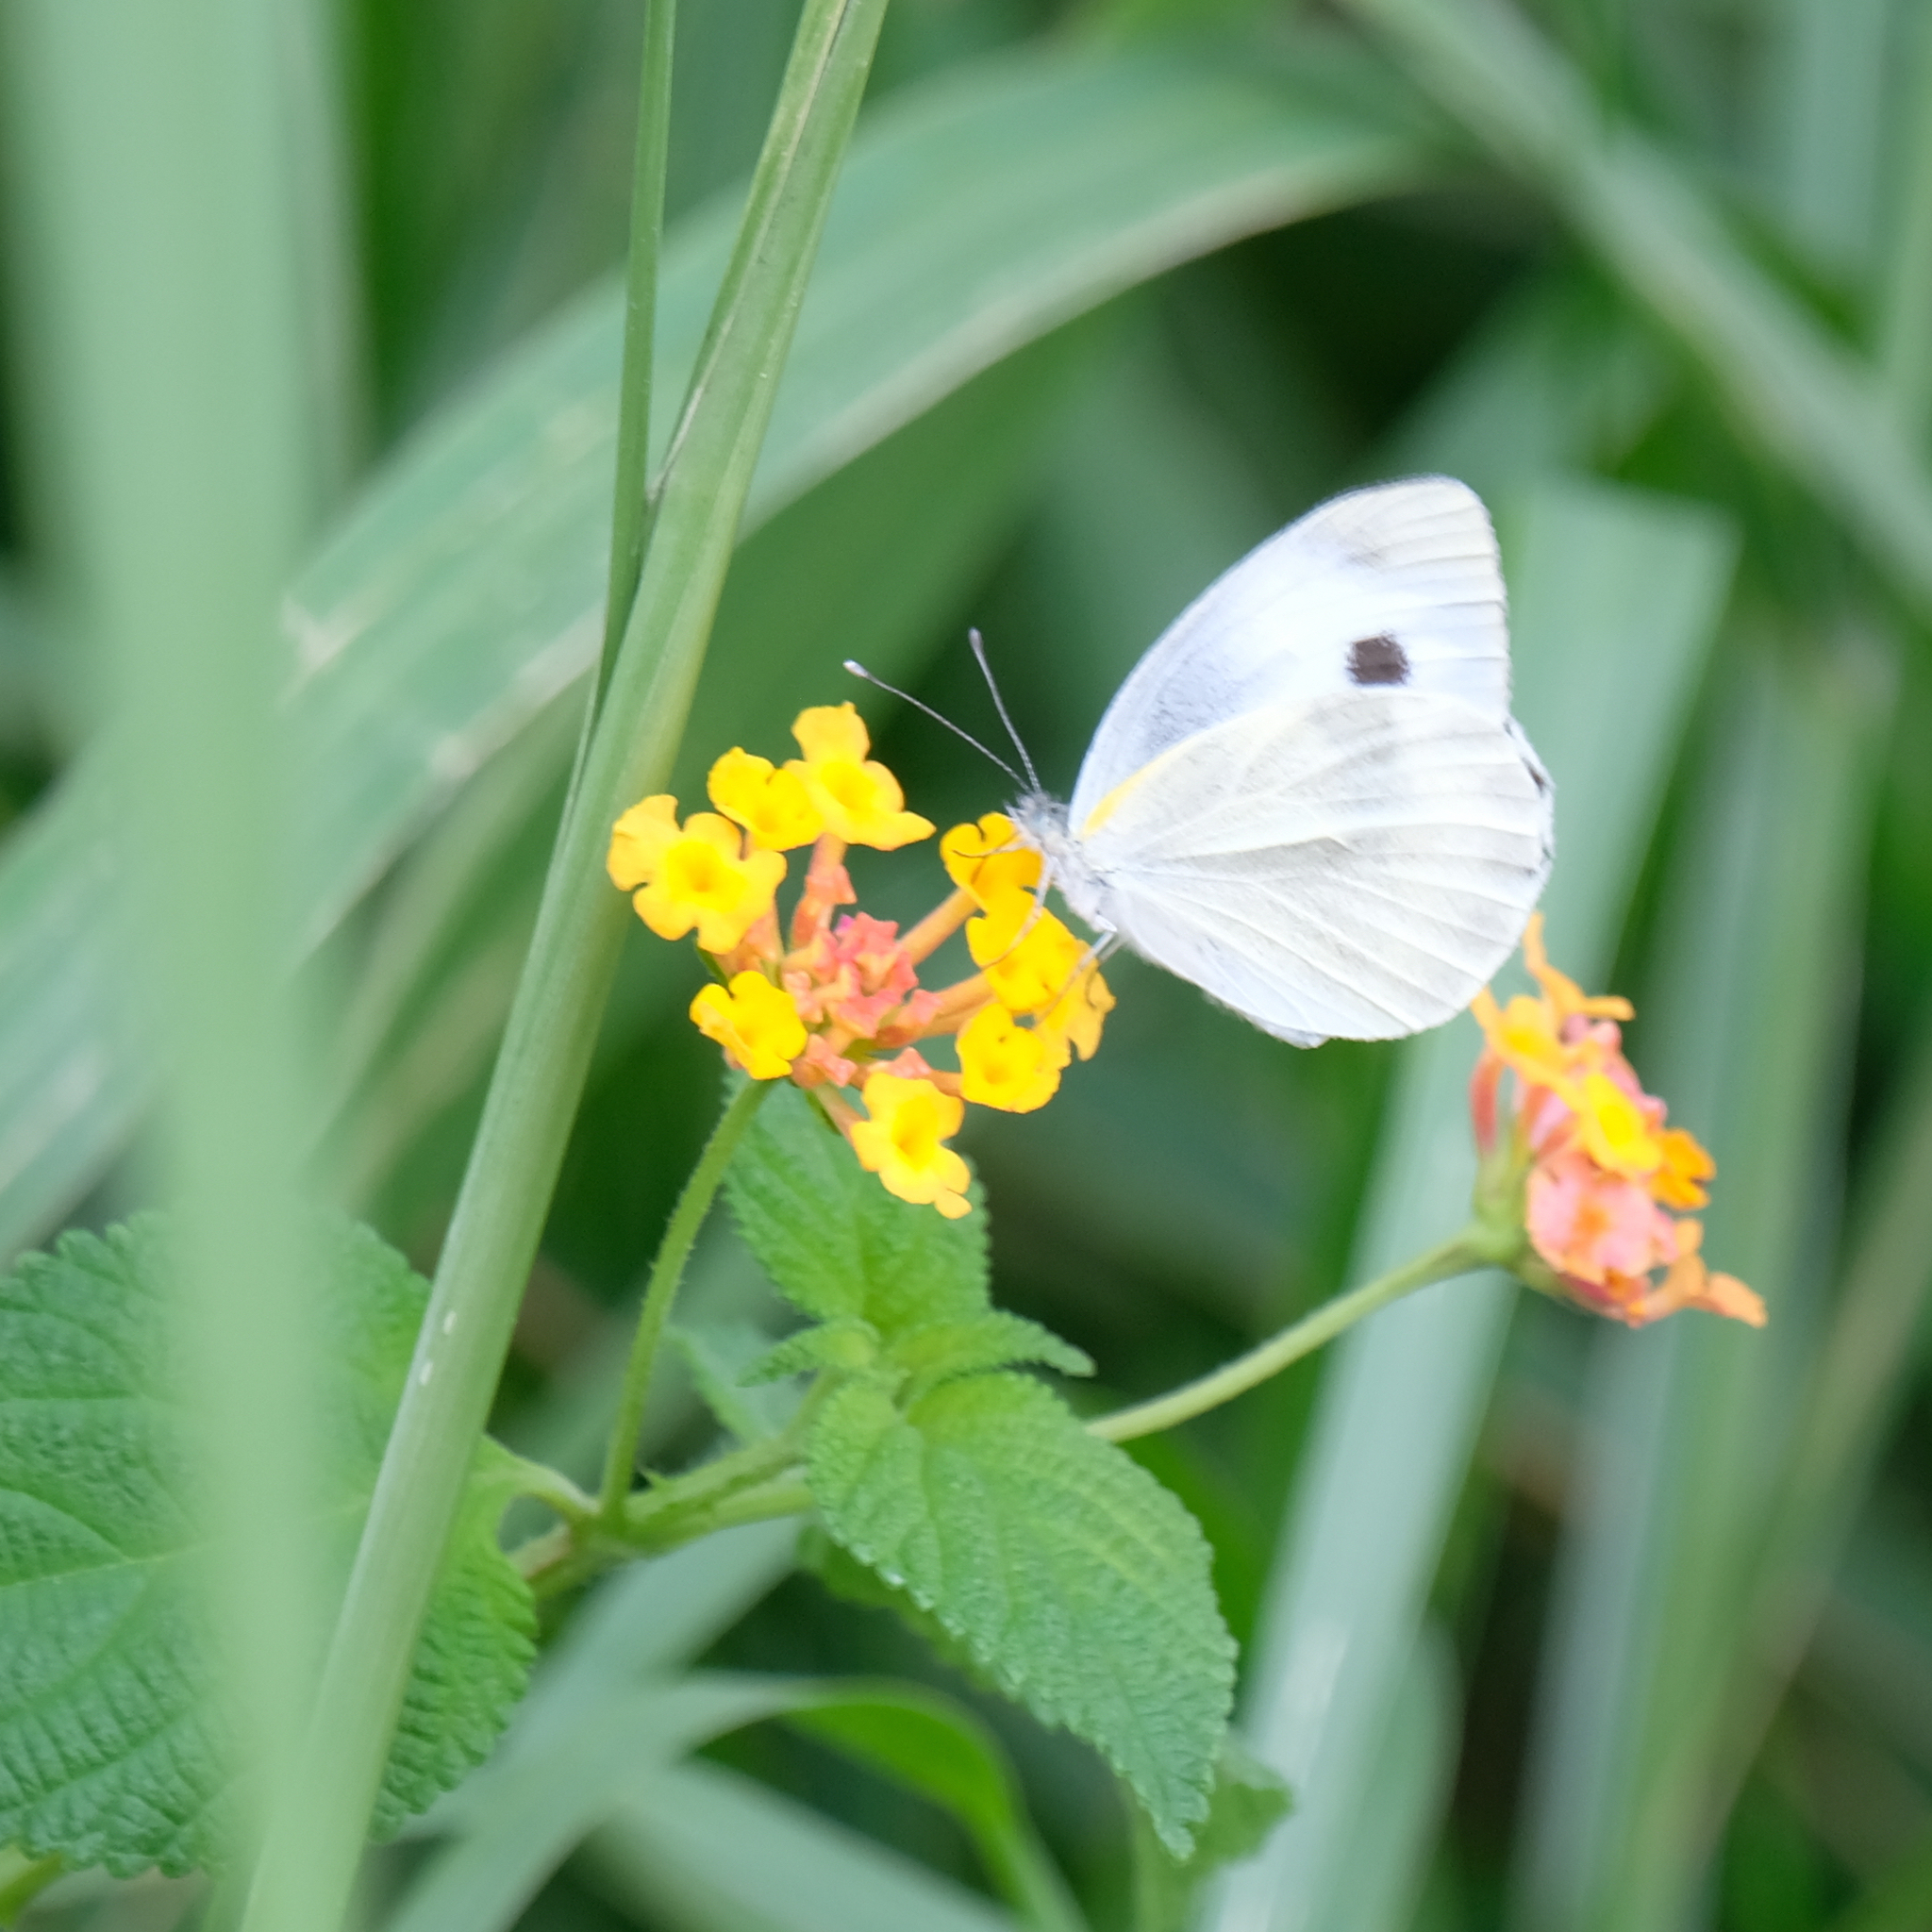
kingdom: Animalia
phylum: Arthropoda
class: Insecta
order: Lepidoptera
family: Pieridae
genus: Pieris
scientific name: Pieris canidia
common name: Indian cabbage white
